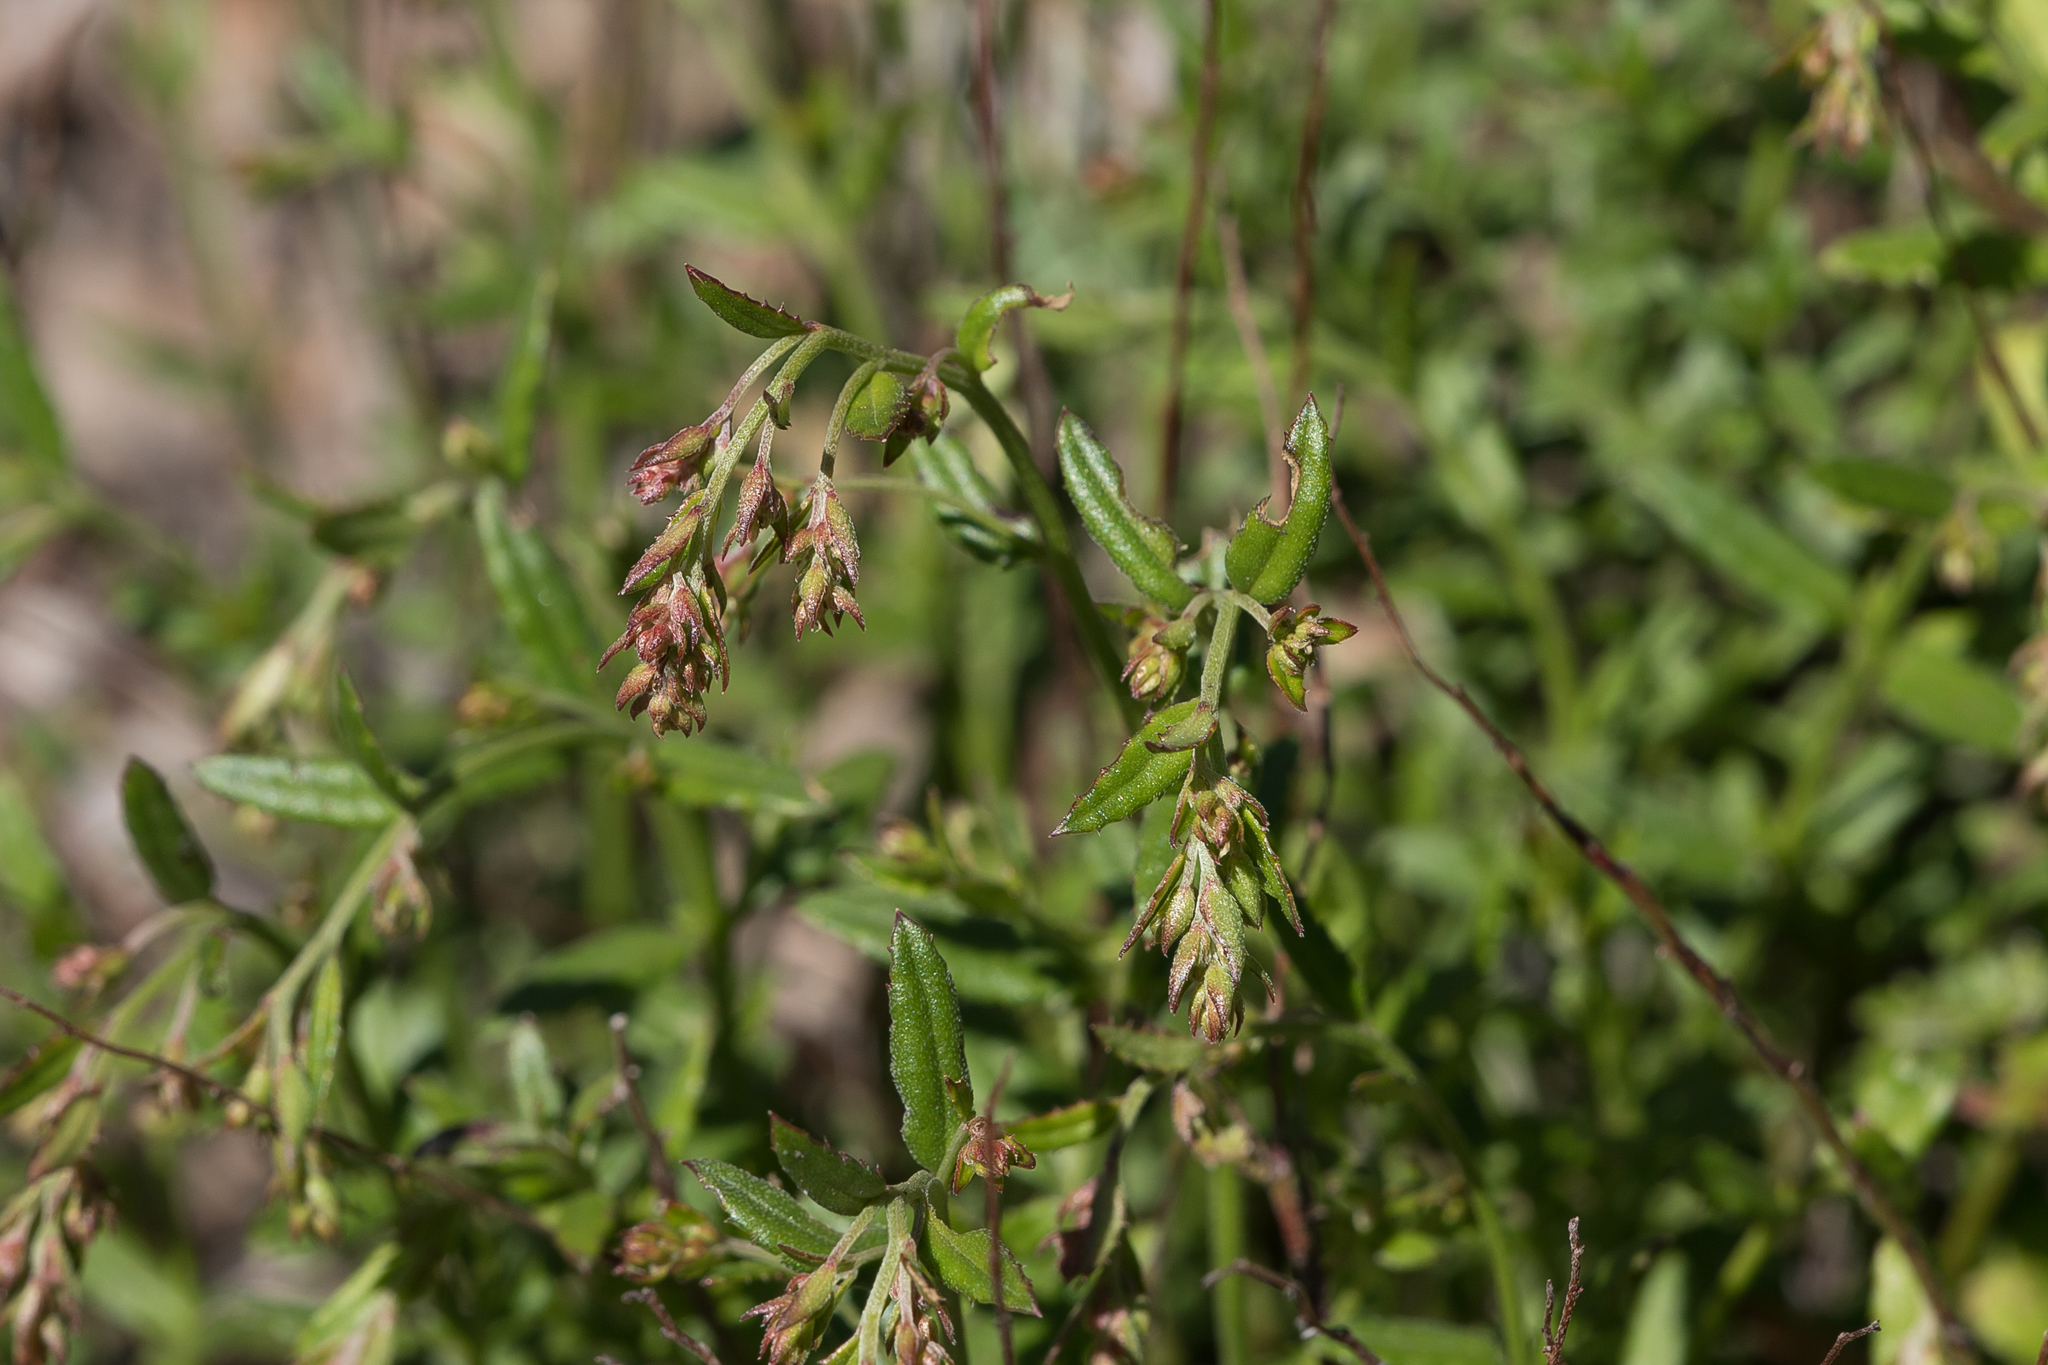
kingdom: Plantae
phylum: Tracheophyta
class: Magnoliopsida
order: Saxifragales
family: Haloragaceae
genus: Gonocarpus
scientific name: Gonocarpus tetragynus
